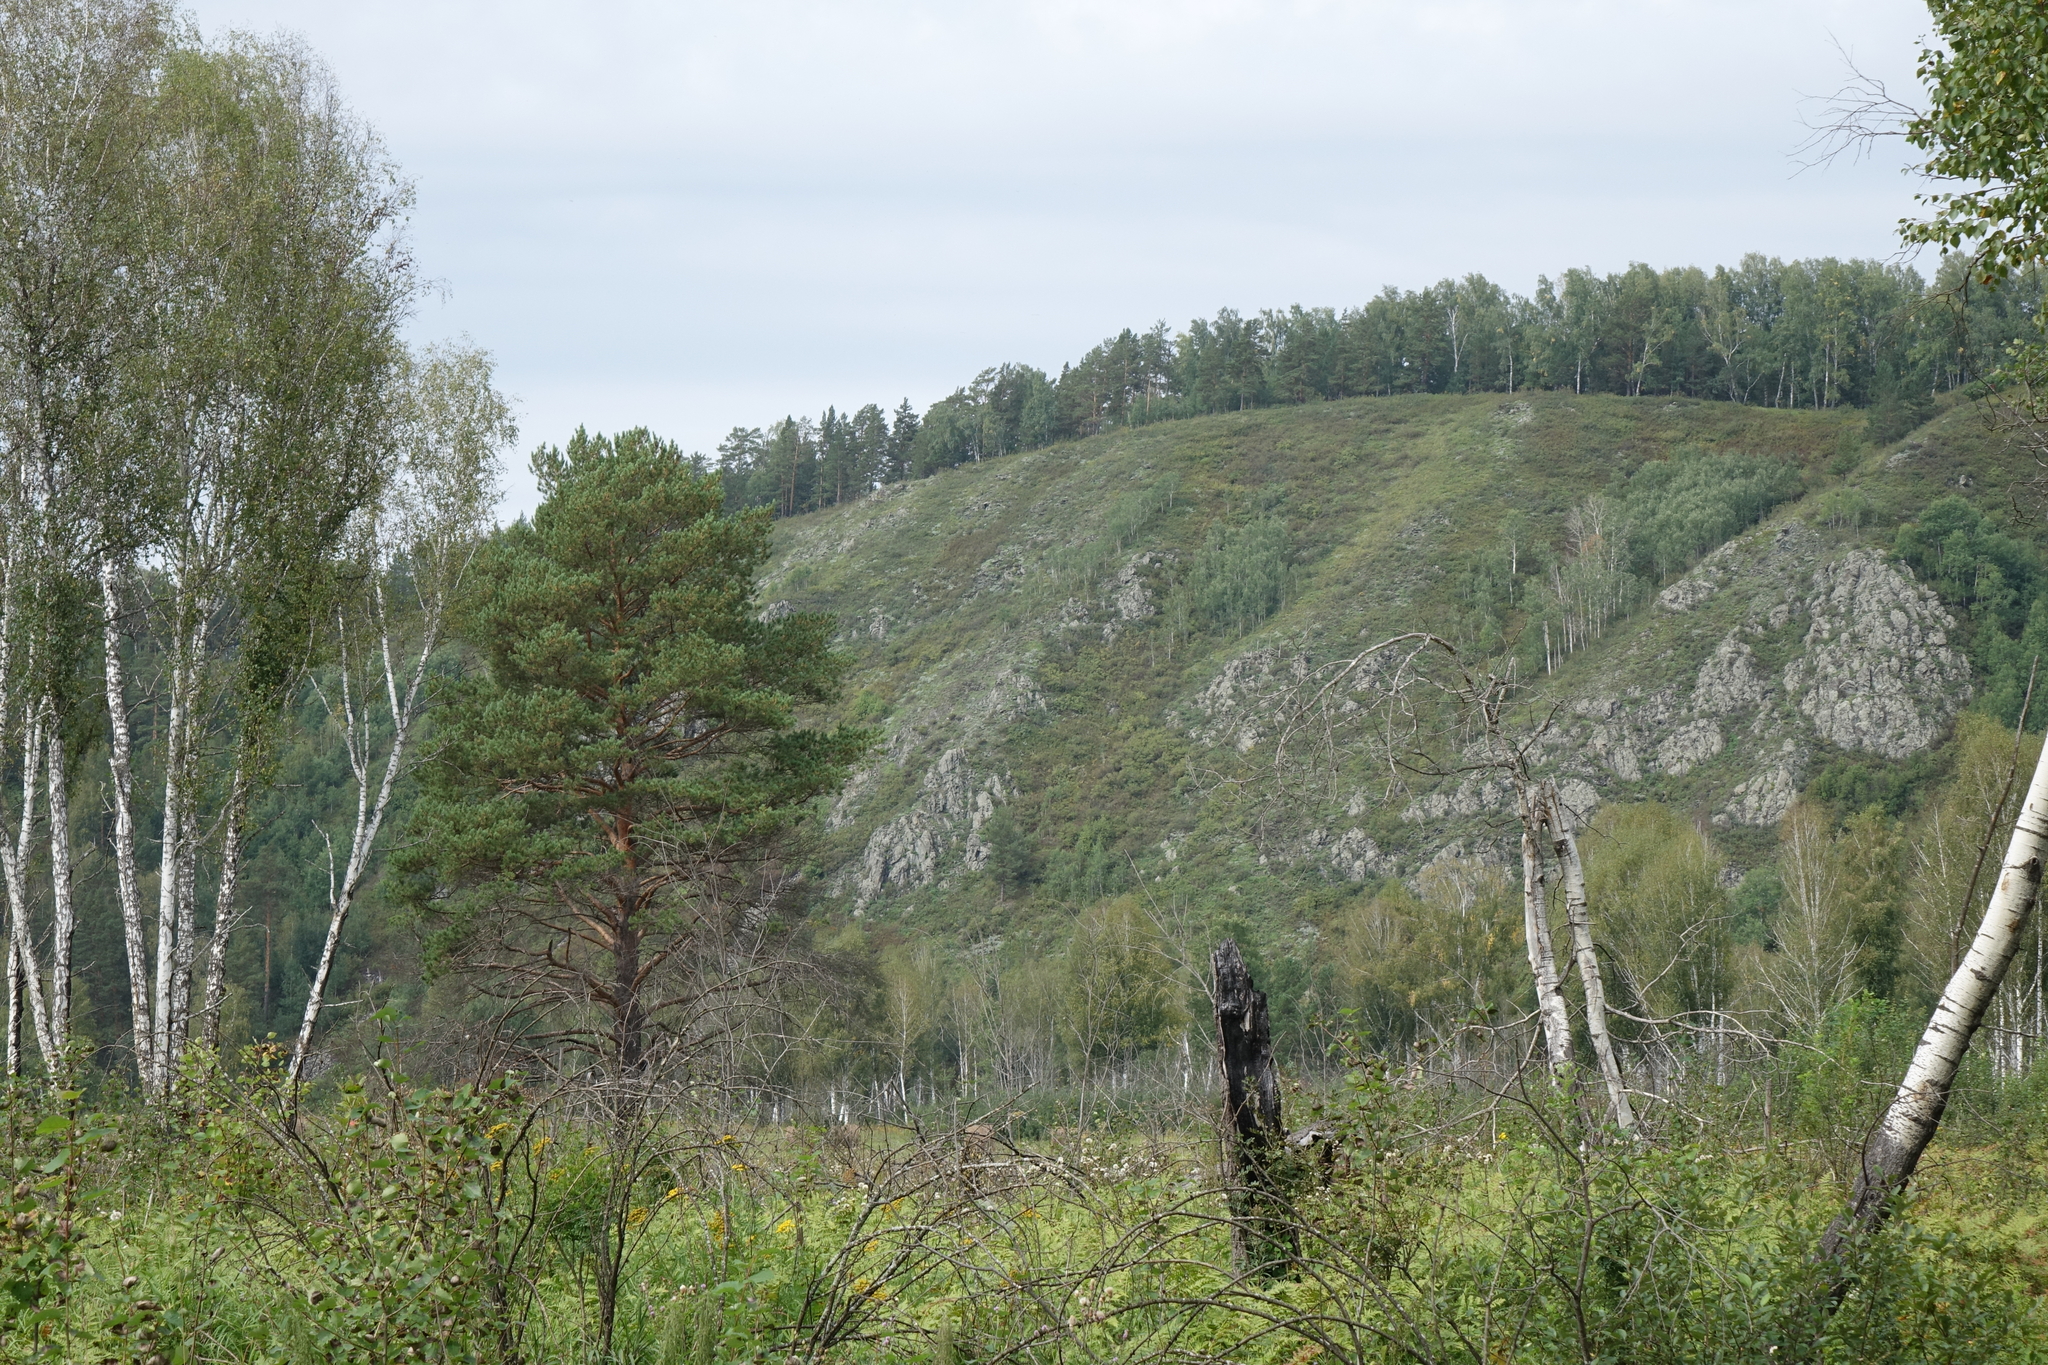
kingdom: Plantae
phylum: Tracheophyta
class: Pinopsida
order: Pinales
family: Pinaceae
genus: Pinus
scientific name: Pinus sylvestris
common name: Scots pine
